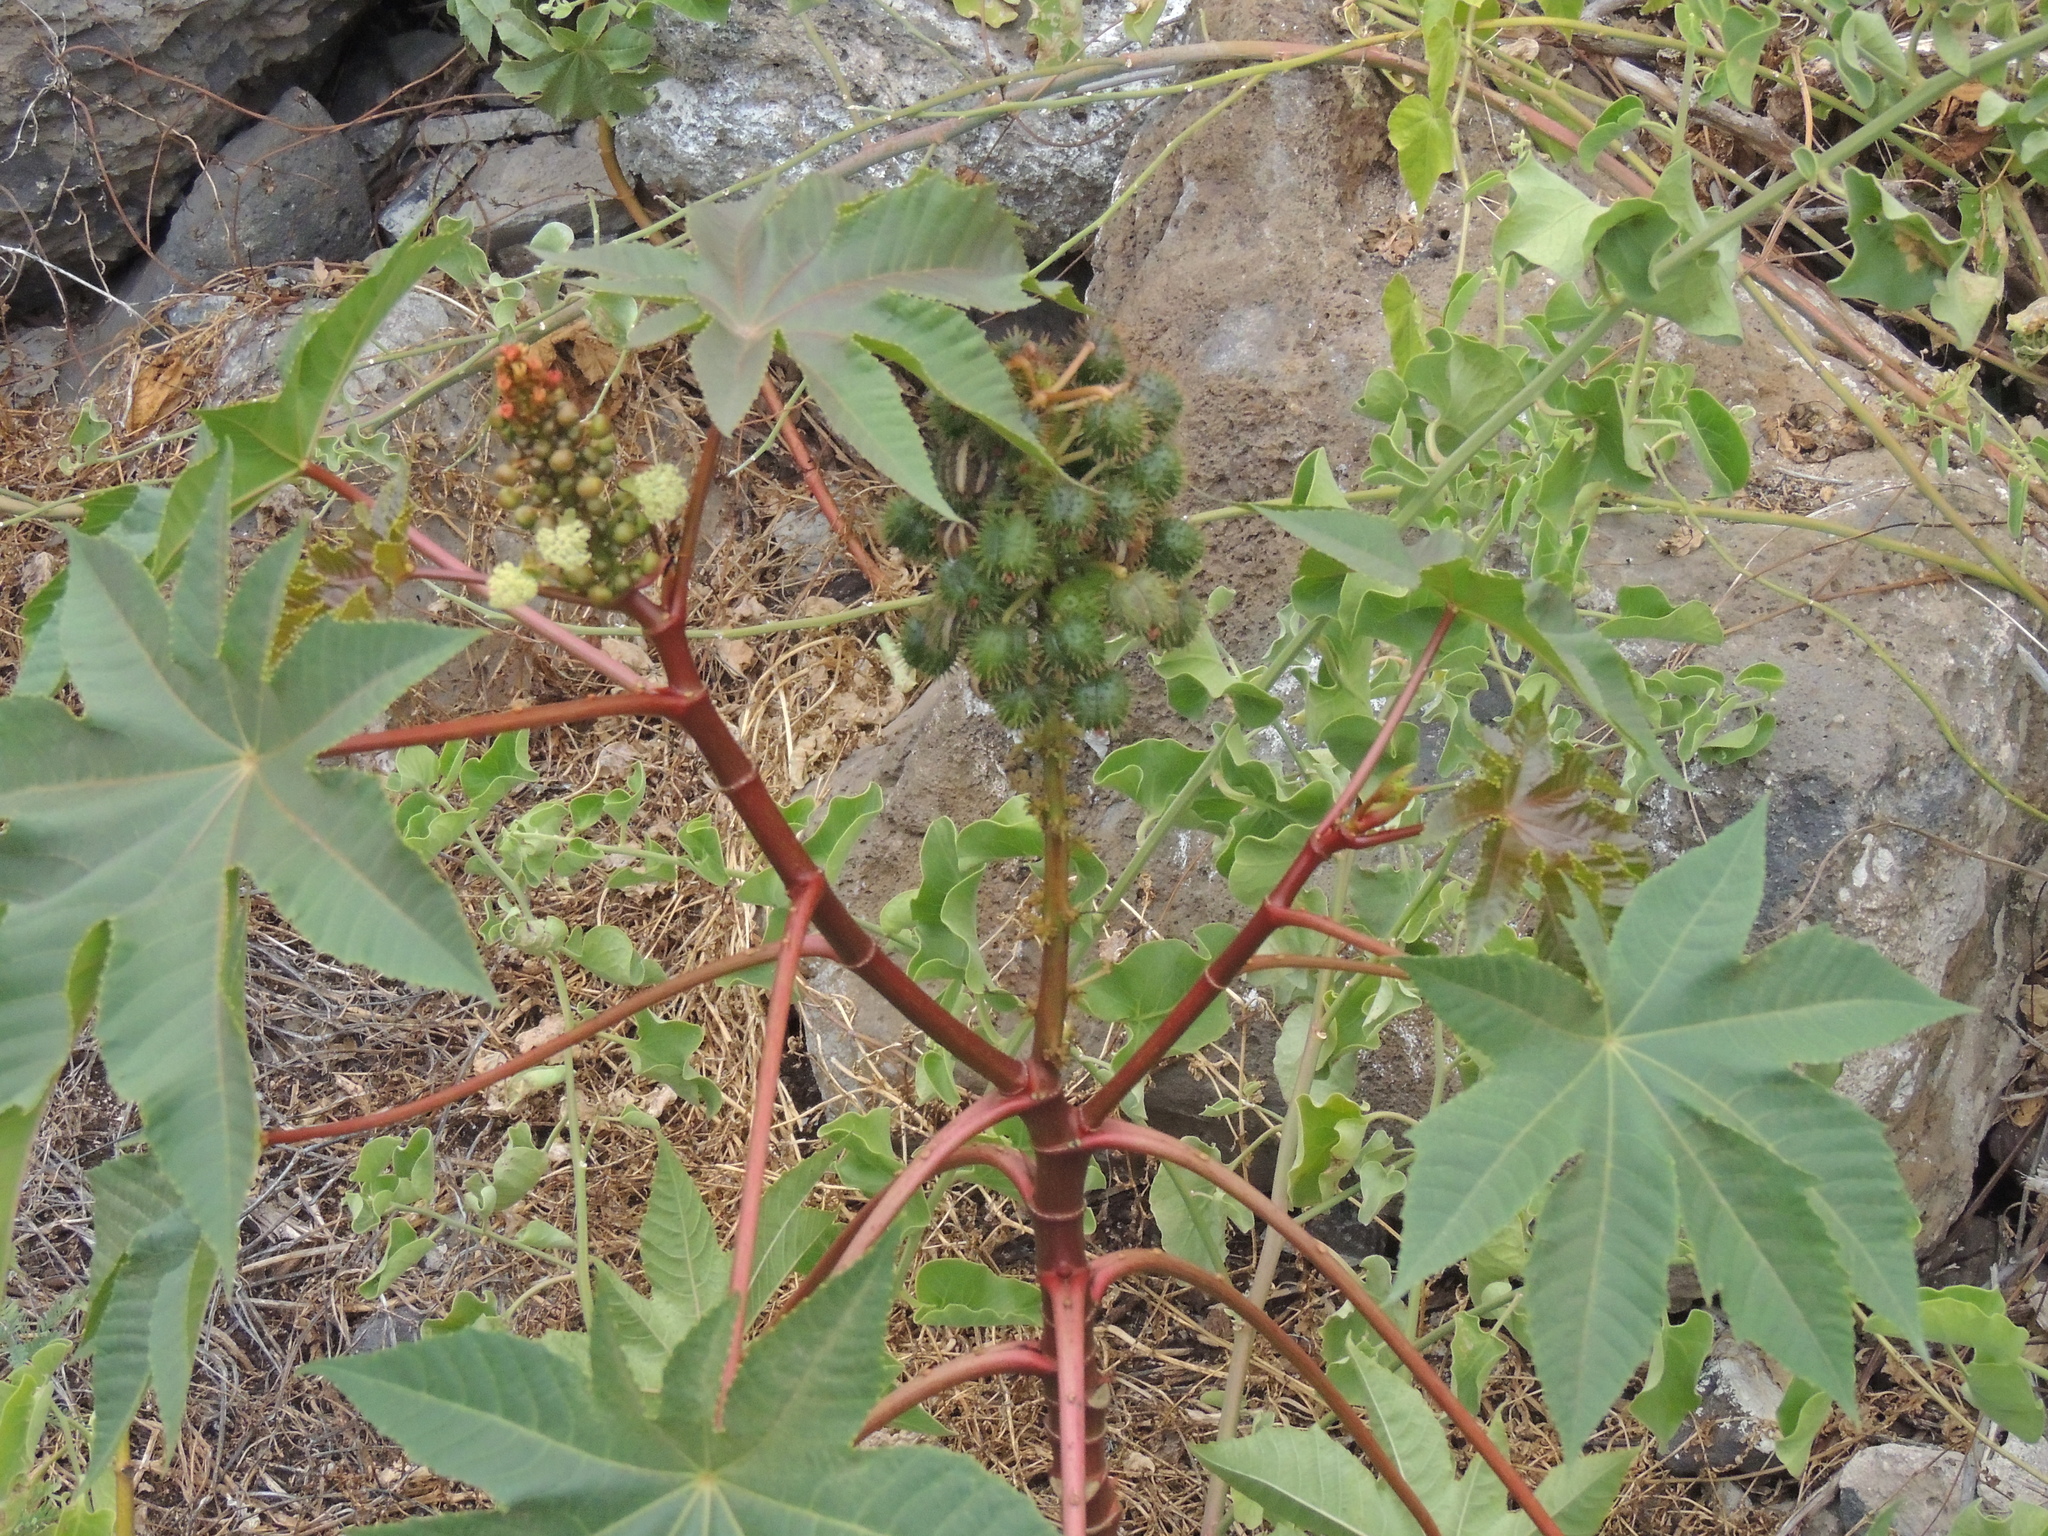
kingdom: Plantae
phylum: Tracheophyta
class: Magnoliopsida
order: Malpighiales
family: Euphorbiaceae
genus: Ricinus
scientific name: Ricinus communis
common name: Castor-oil-plant
